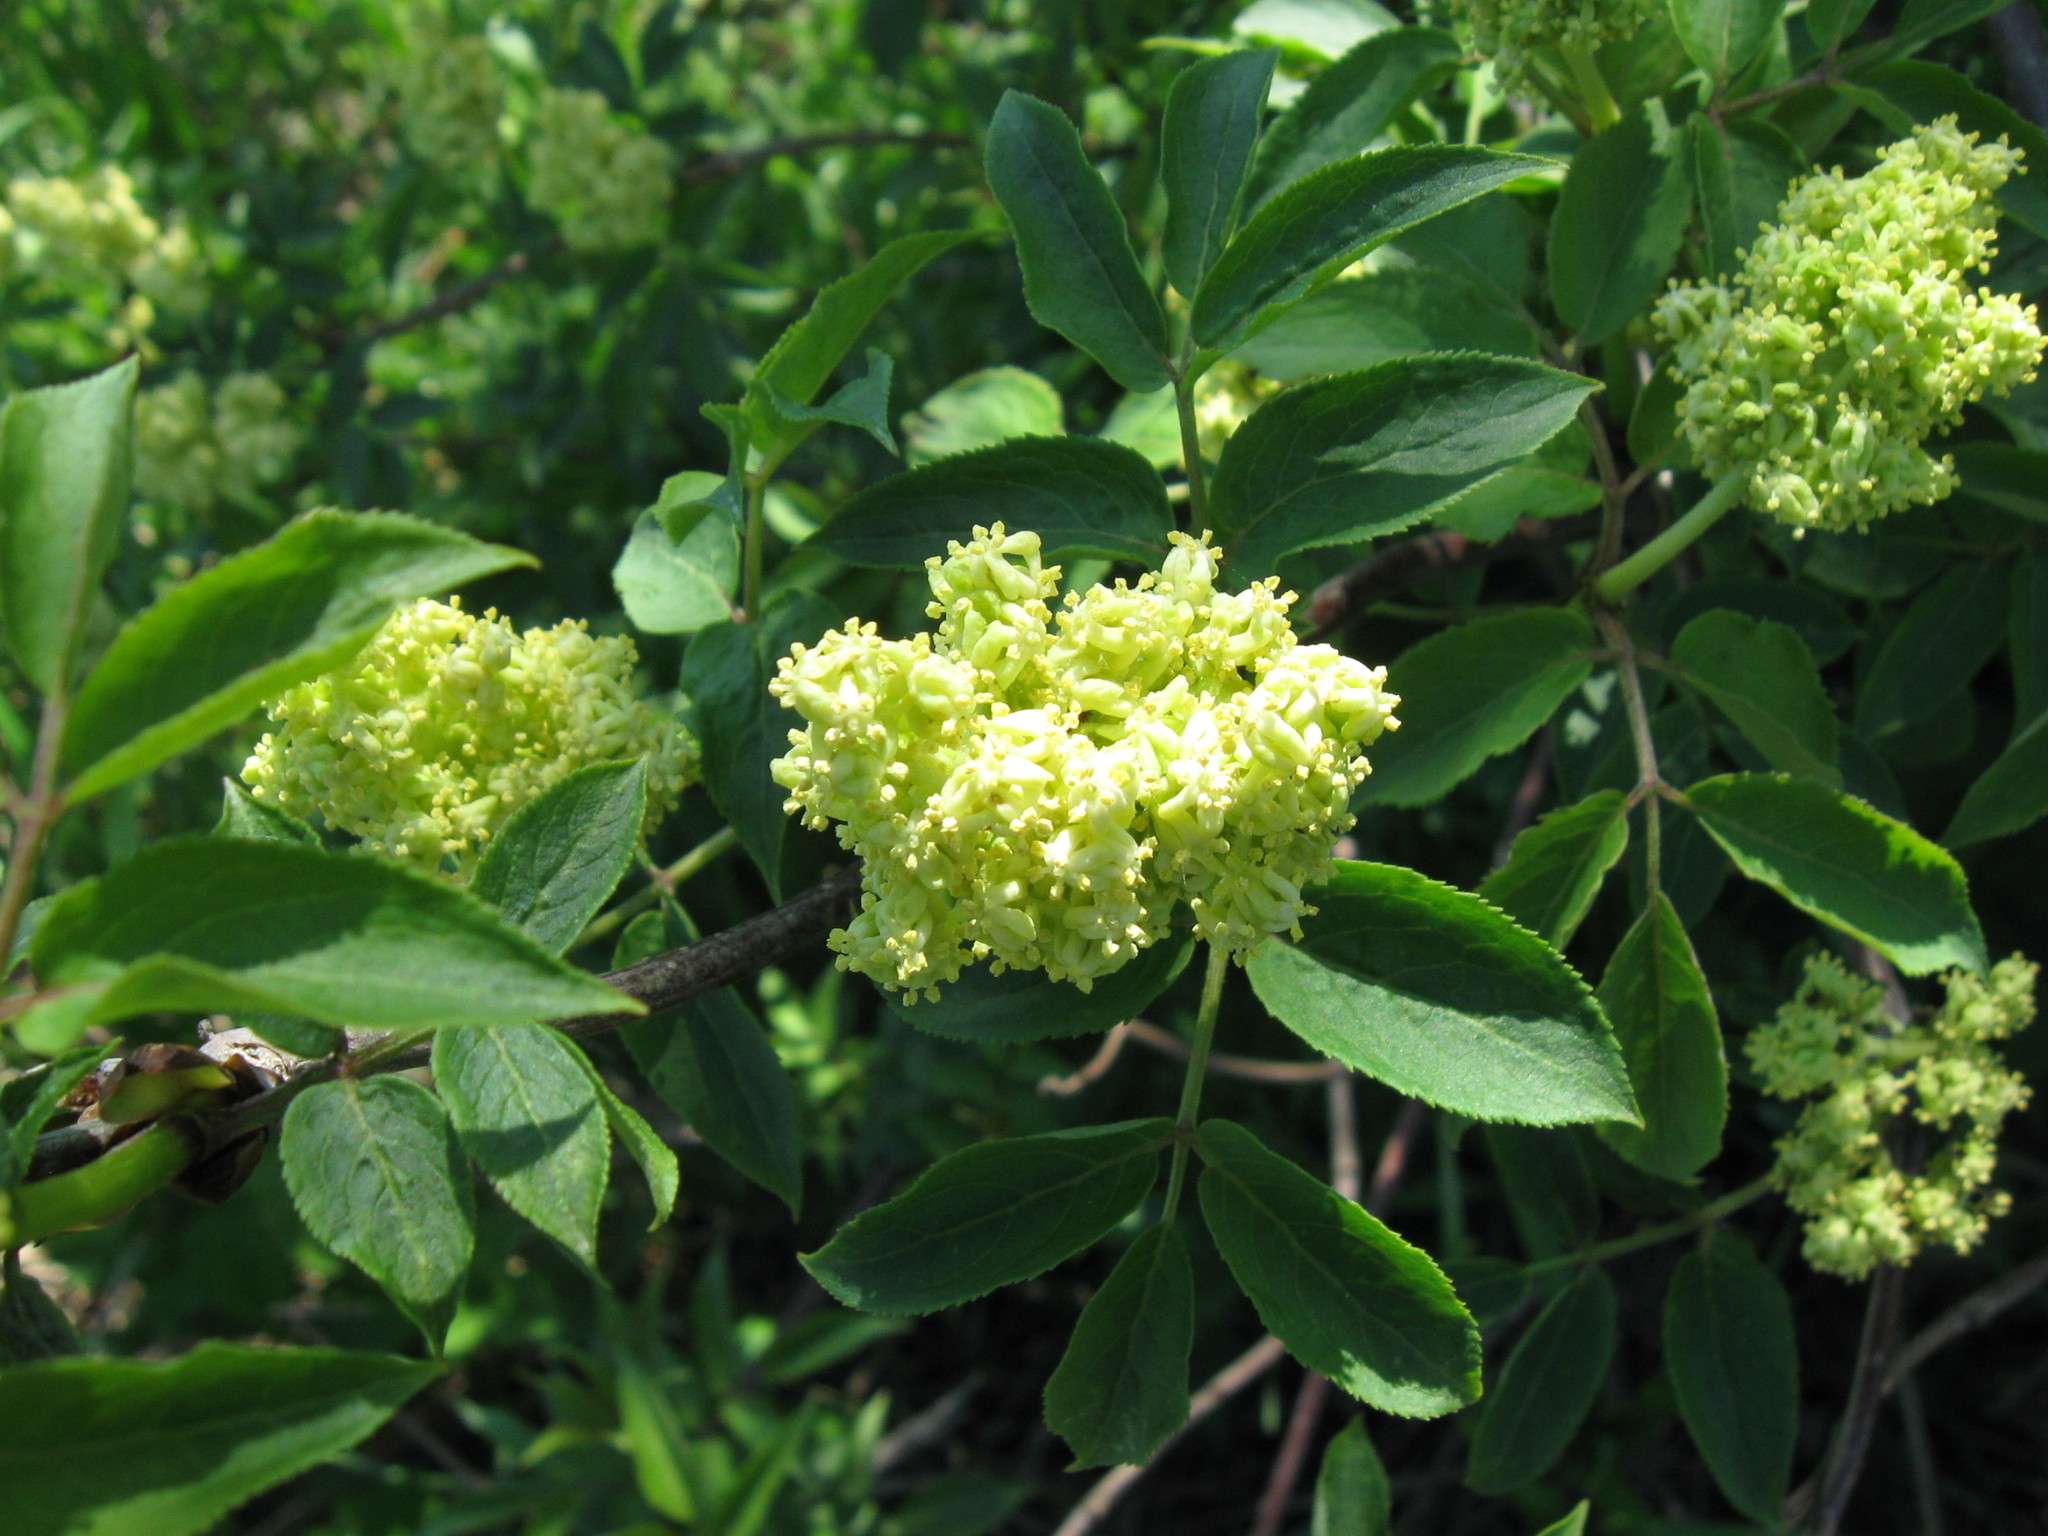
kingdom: Plantae
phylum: Tracheophyta
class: Magnoliopsida
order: Dipsacales
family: Viburnaceae
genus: Sambucus
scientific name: Sambucus racemosa
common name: Red-berried elder
